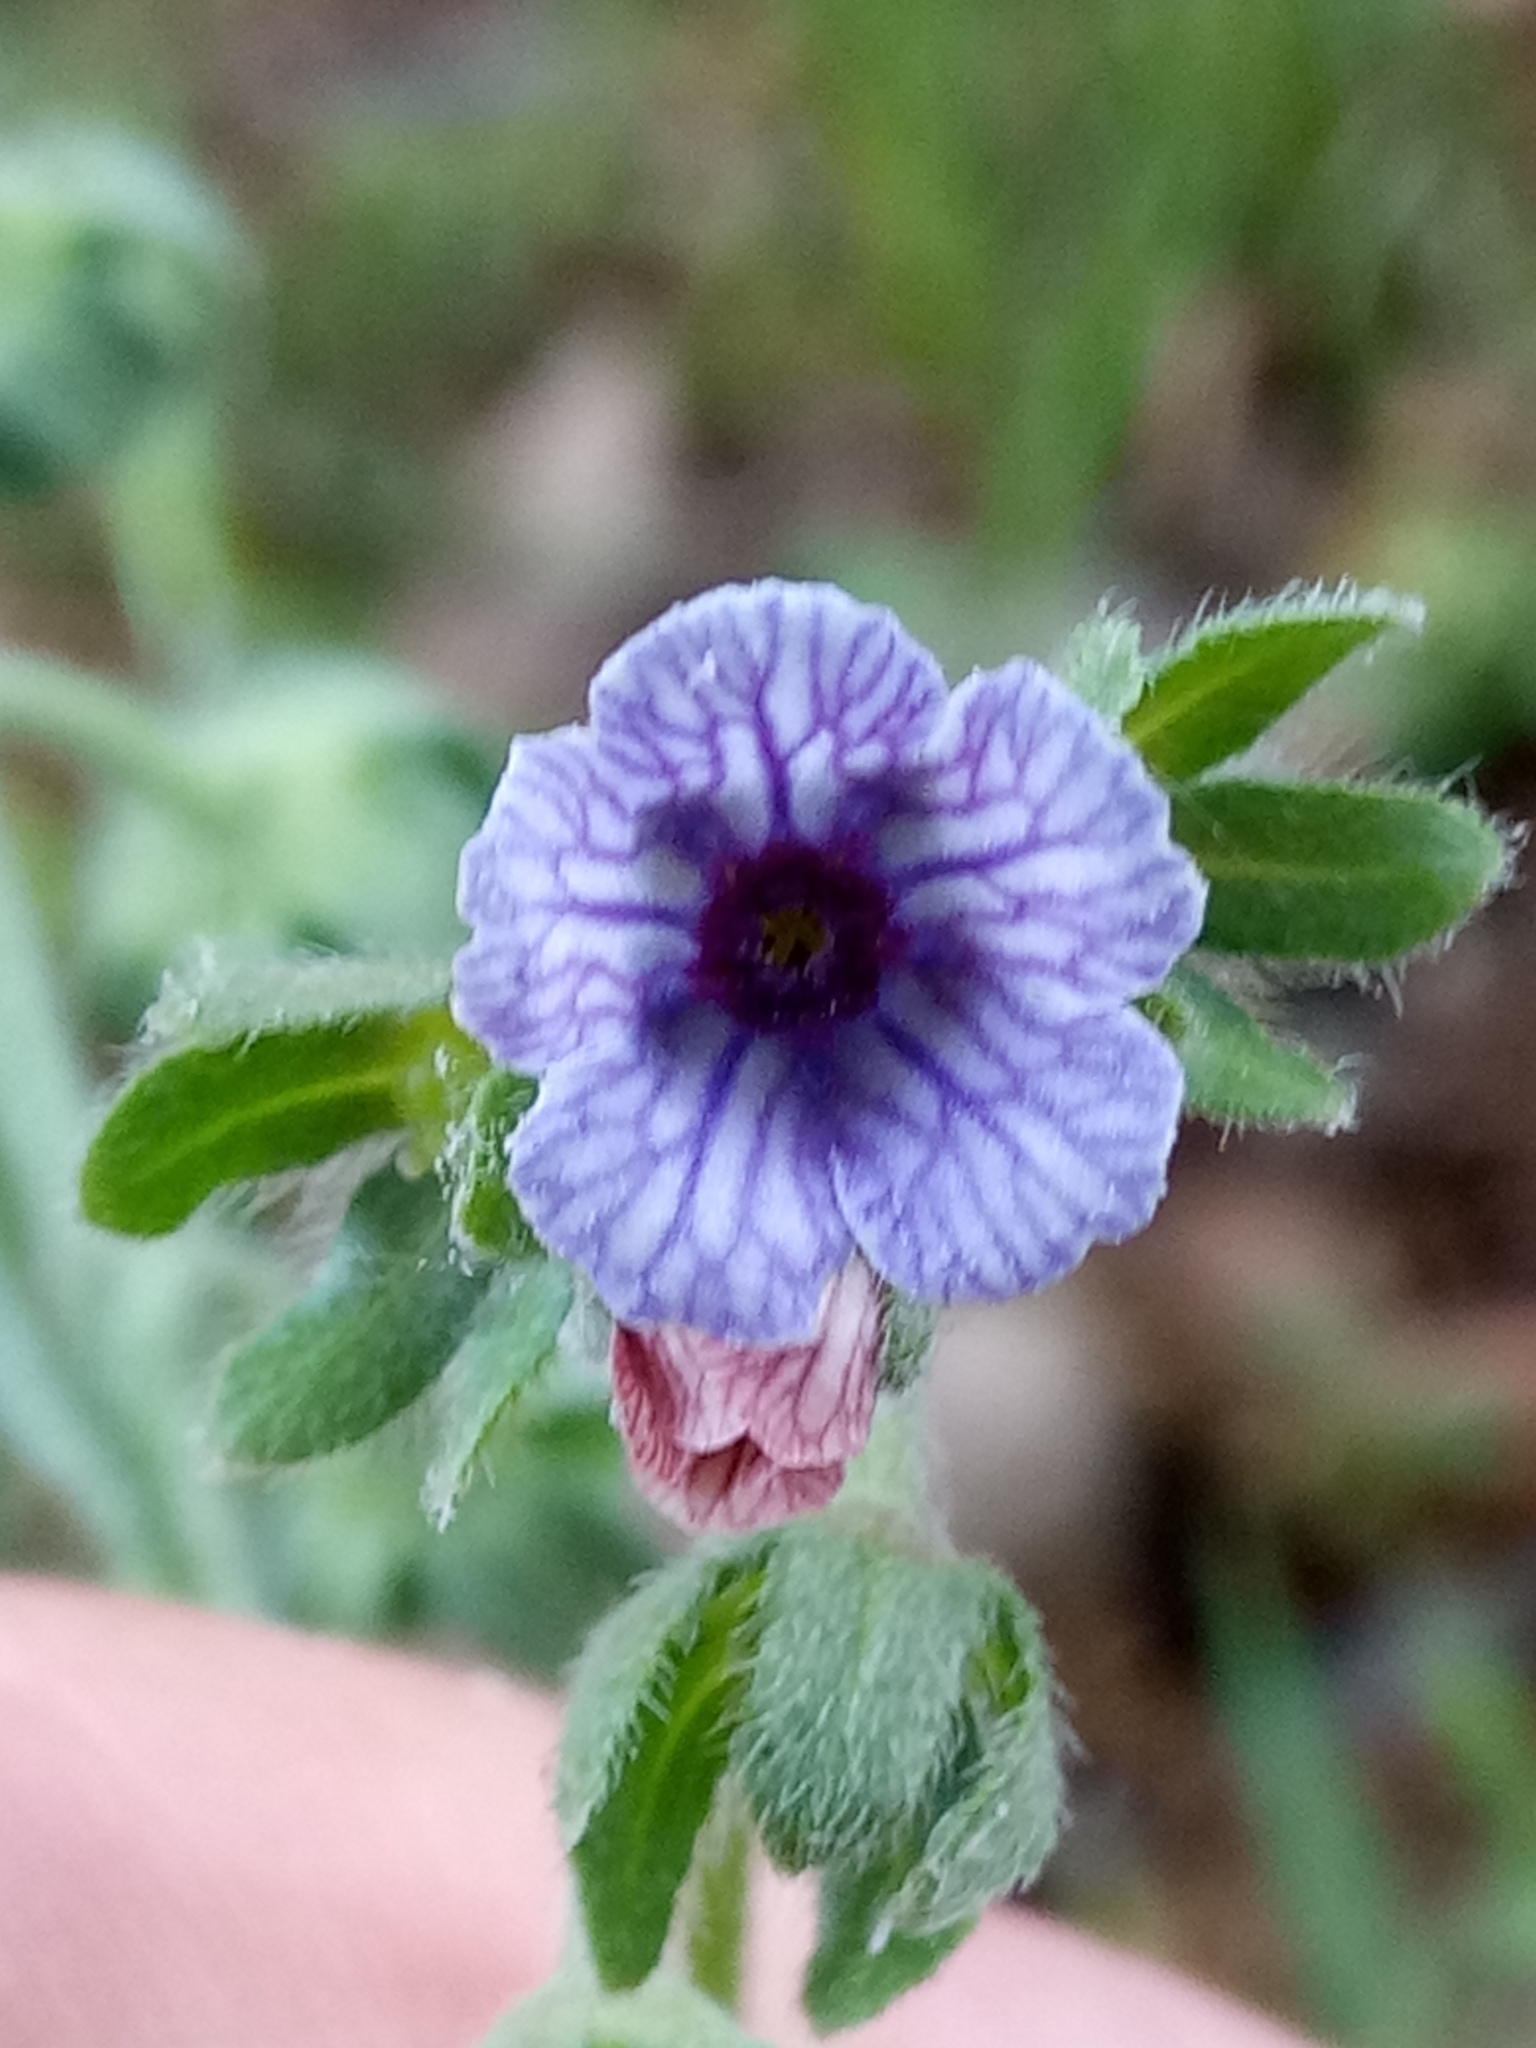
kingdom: Plantae
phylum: Tracheophyta
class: Magnoliopsida
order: Boraginales
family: Boraginaceae
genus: Cynoglossum
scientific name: Cynoglossum creticum
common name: Blue hound's tongue
